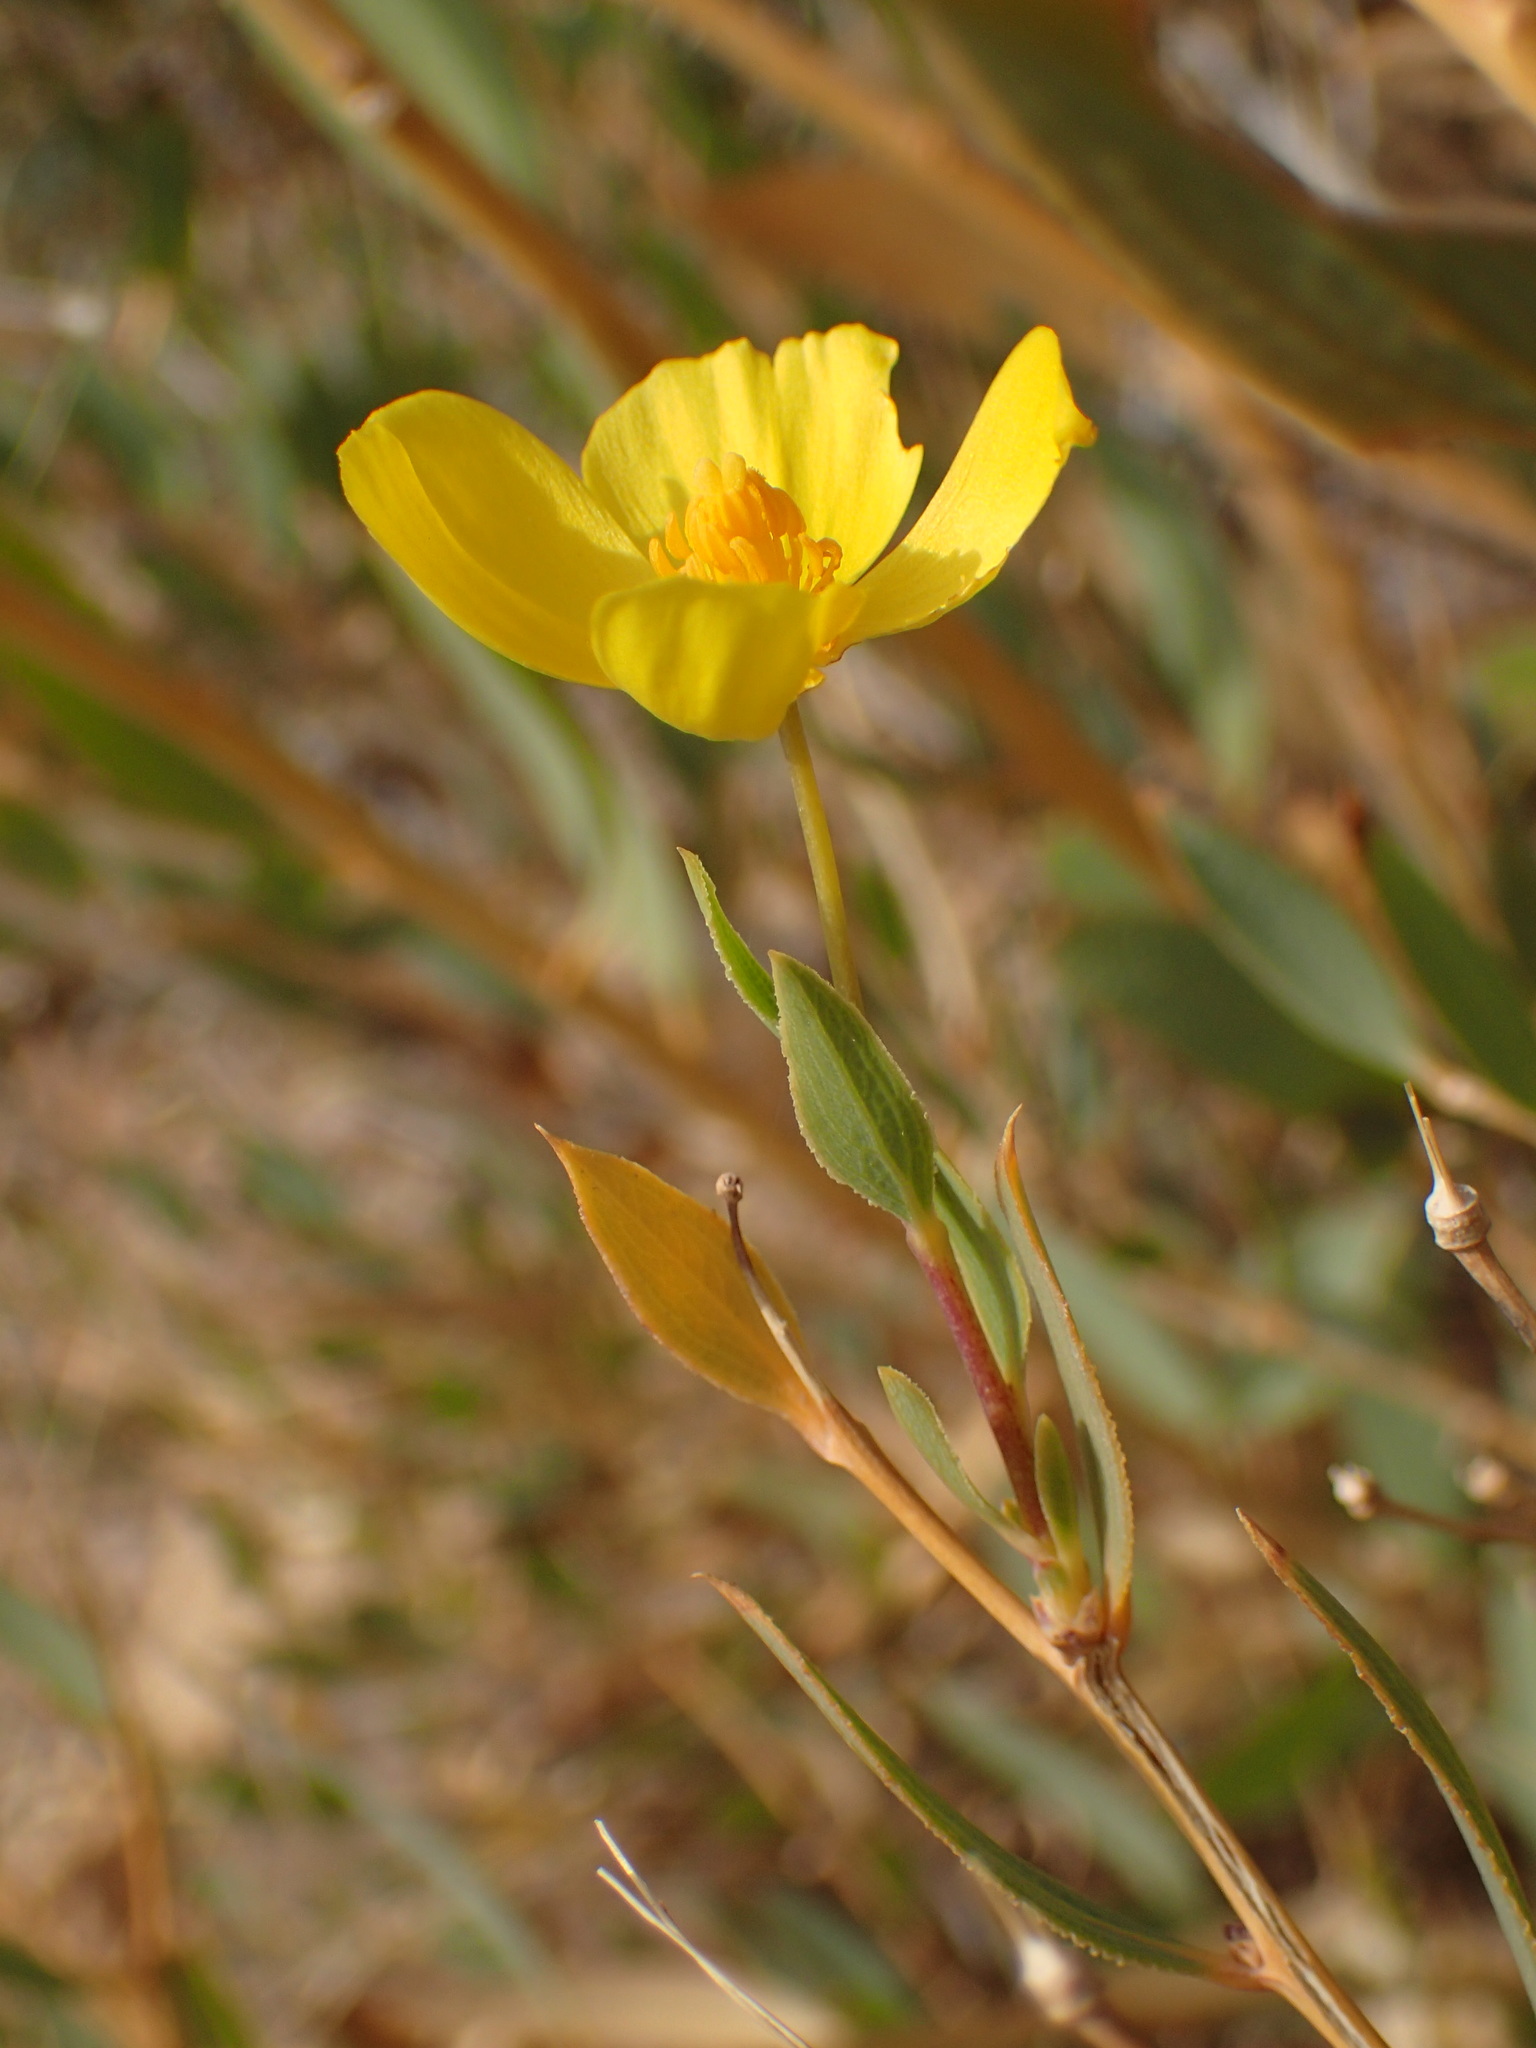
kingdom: Plantae
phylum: Tracheophyta
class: Magnoliopsida
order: Ranunculales
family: Papaveraceae
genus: Dendromecon
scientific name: Dendromecon rigida
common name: Tree poppy
